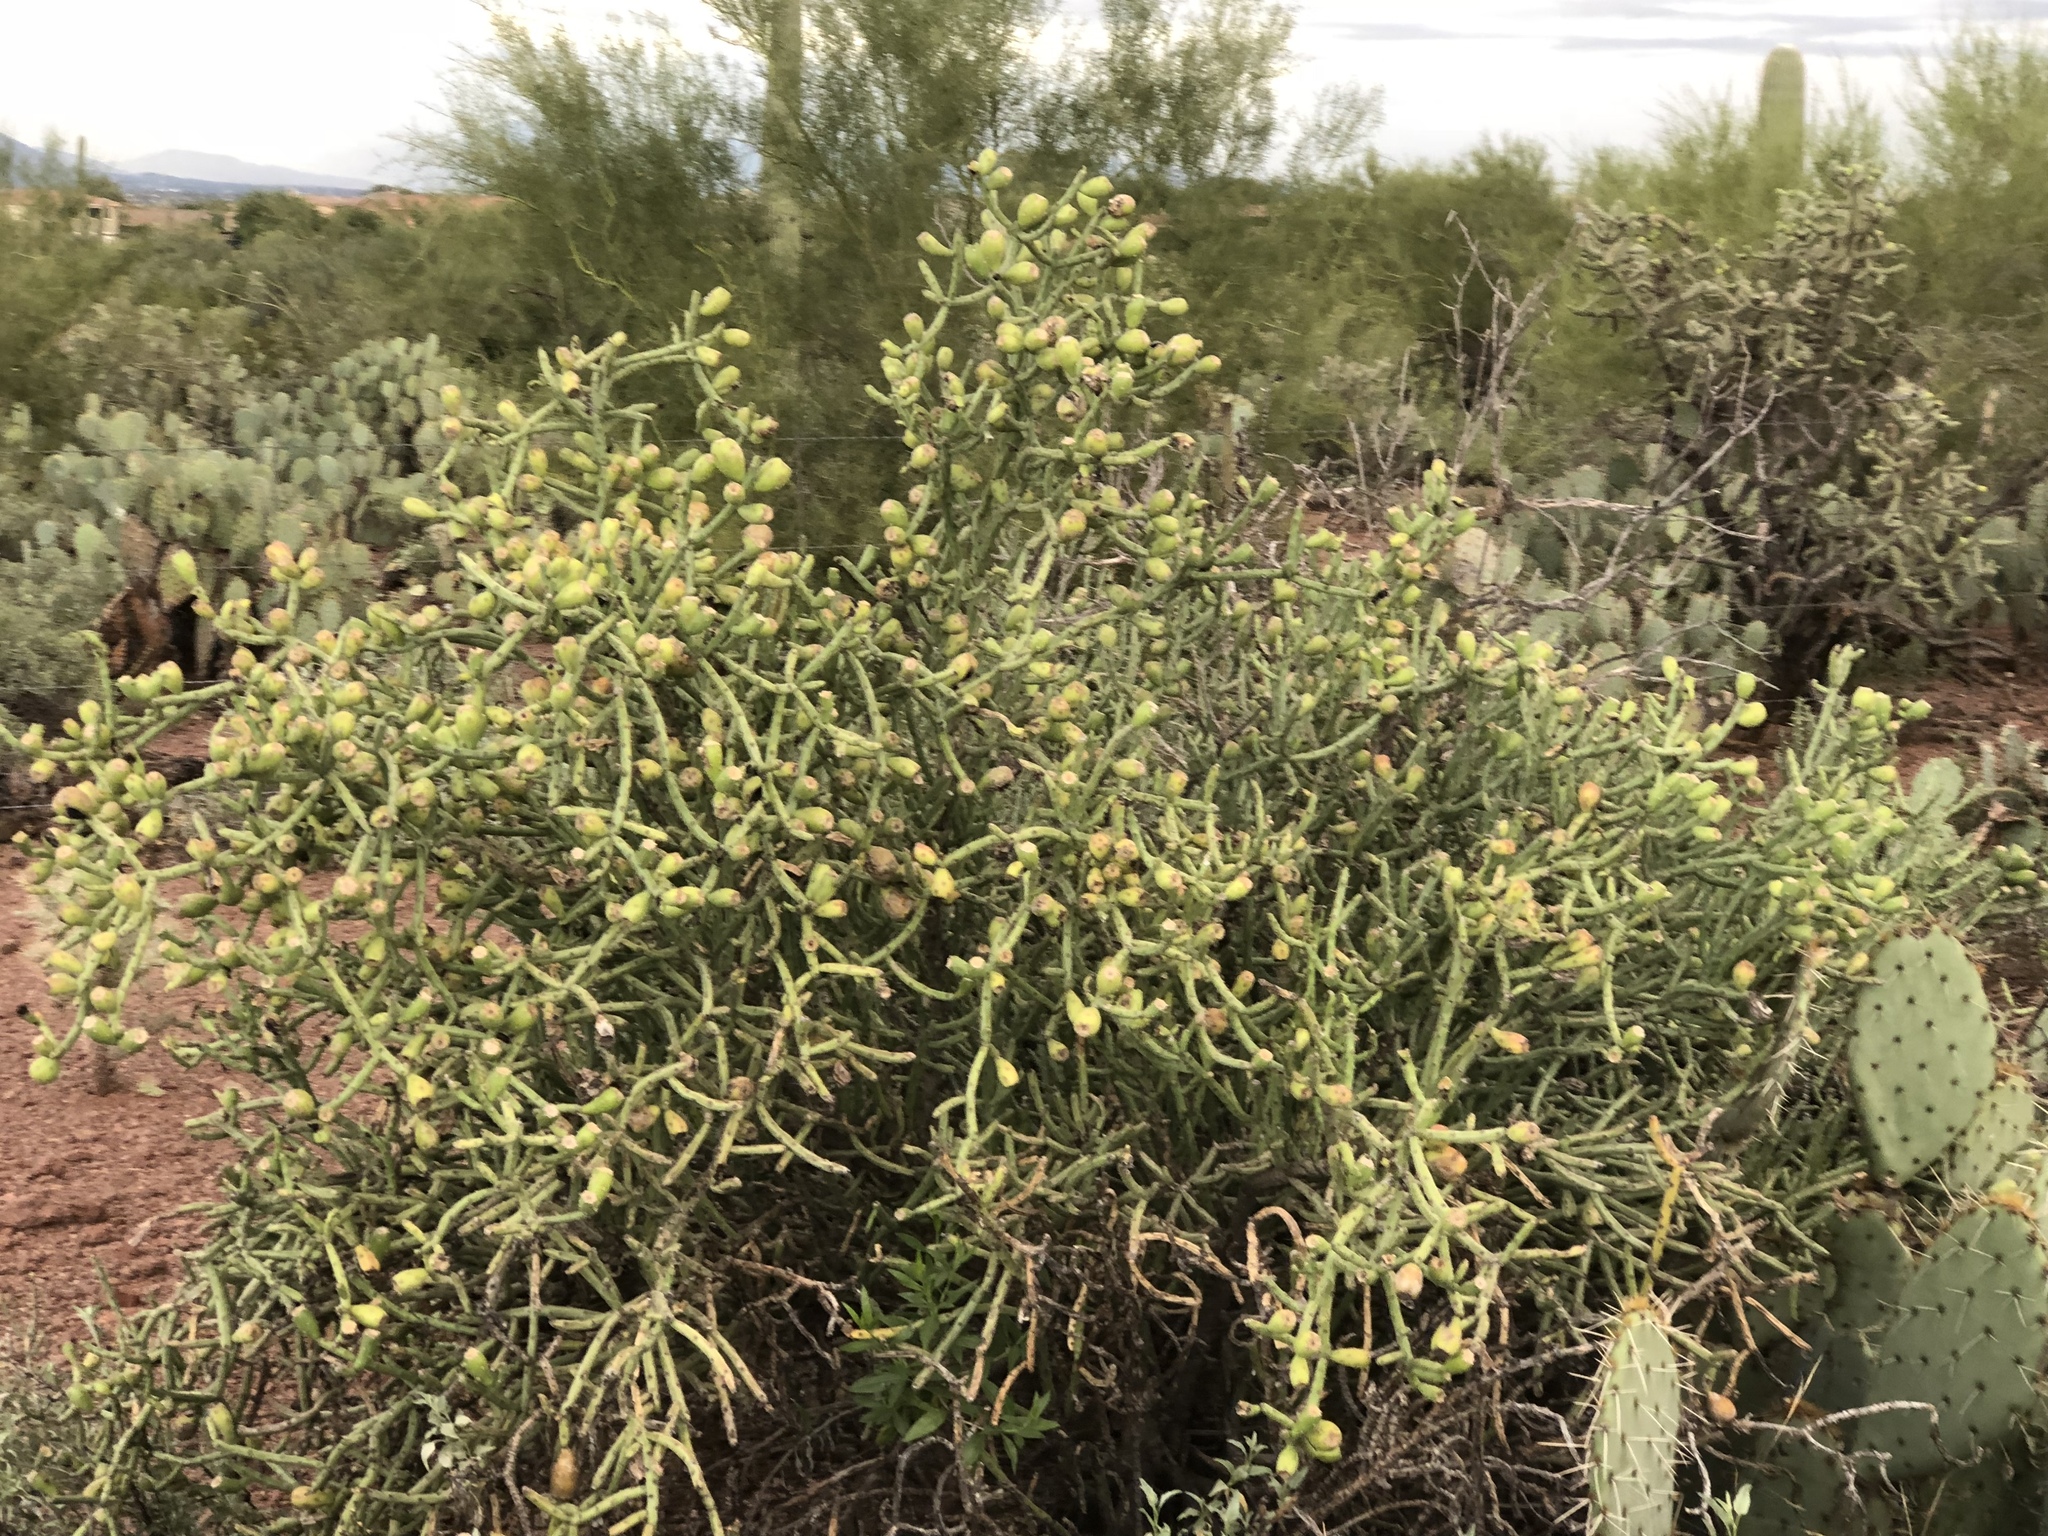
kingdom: Plantae
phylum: Tracheophyta
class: Magnoliopsida
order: Caryophyllales
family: Cactaceae
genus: Cylindropuntia
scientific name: Cylindropuntia arbuscula
